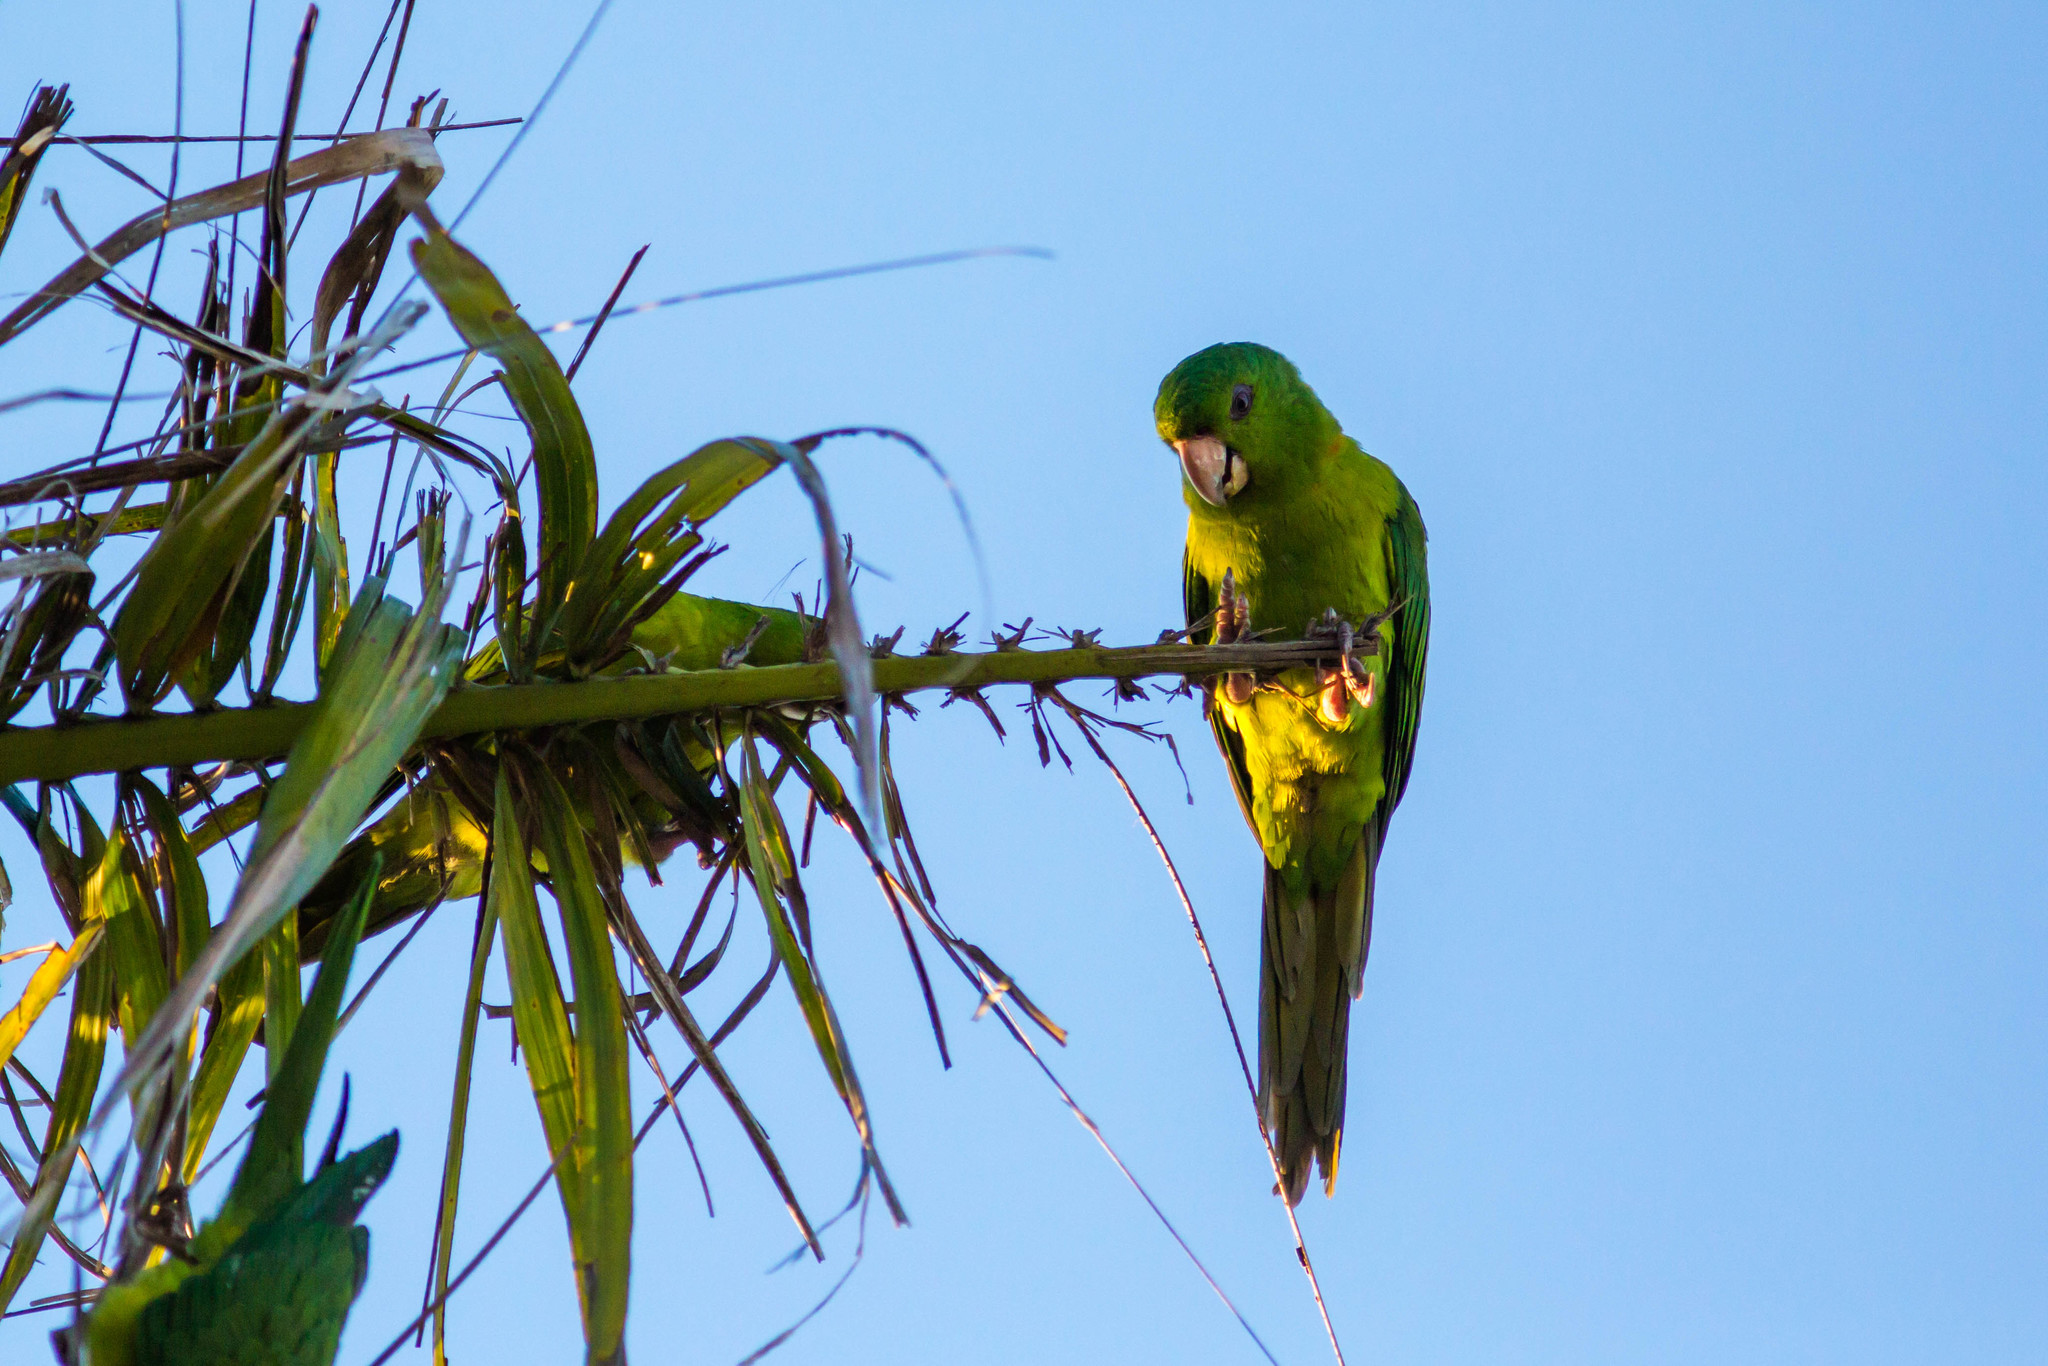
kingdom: Animalia
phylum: Chordata
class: Aves
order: Psittaciformes
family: Psittacidae
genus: Aratinga
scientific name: Aratinga holochlora
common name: Green parakeet
